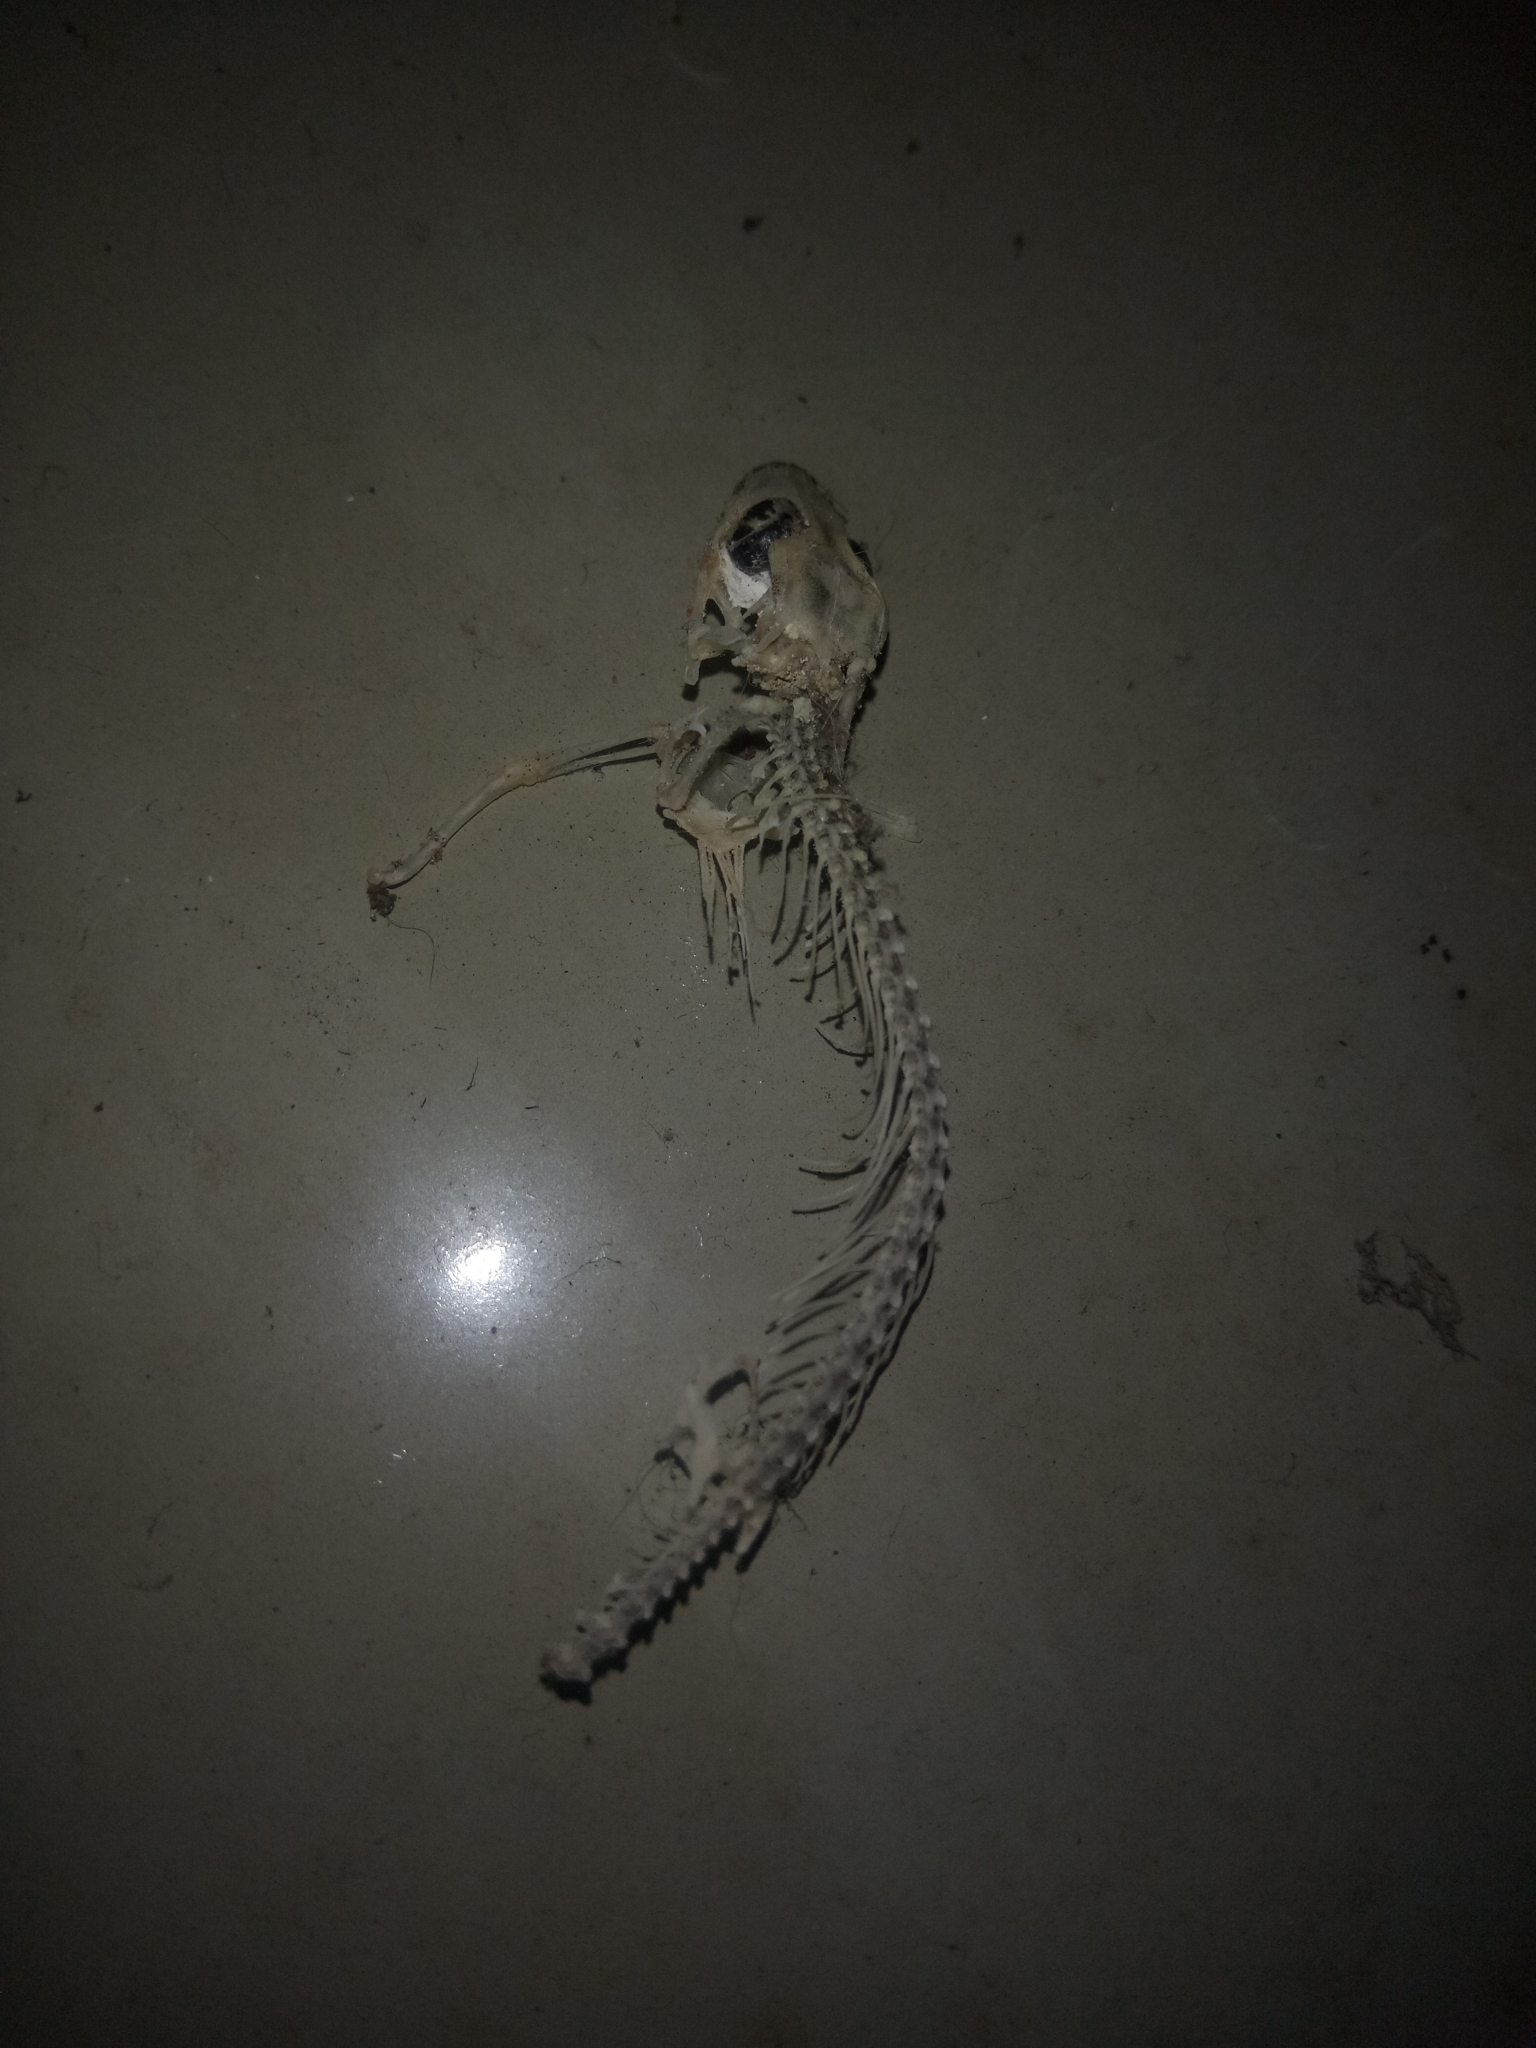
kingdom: Animalia
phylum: Chordata
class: Squamata
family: Gekkonidae
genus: Hemidactylus
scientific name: Hemidactylus frenatus
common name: Common house gecko
